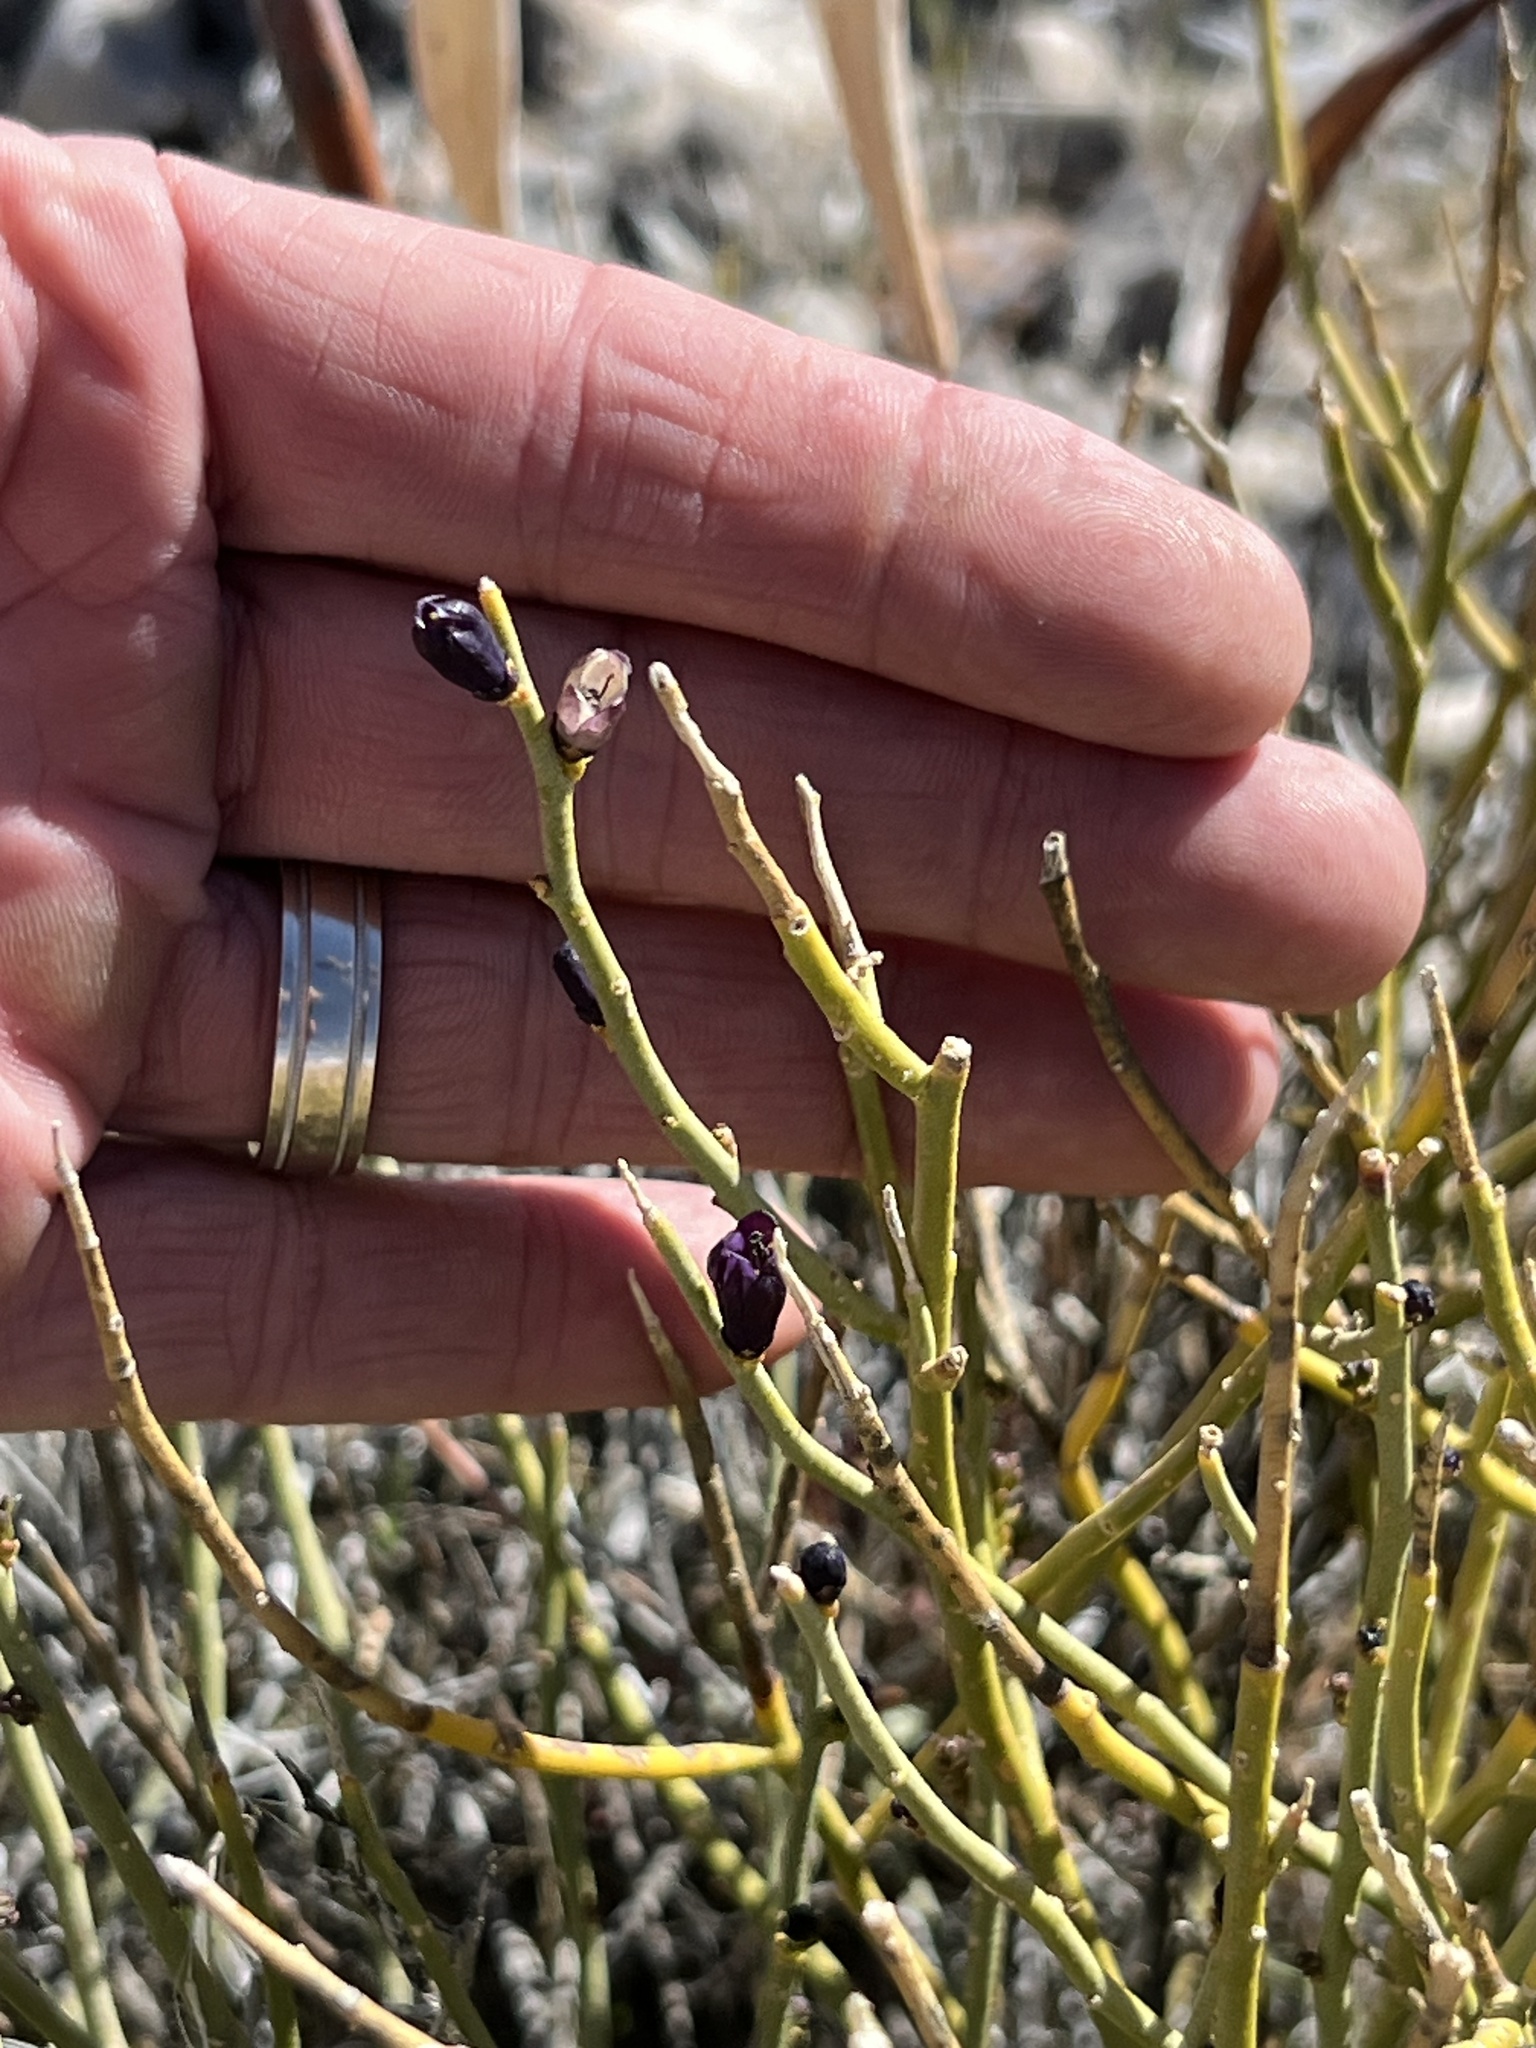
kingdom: Plantae
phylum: Tracheophyta
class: Magnoliopsida
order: Sapindales
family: Rutaceae
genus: Thamnosma
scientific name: Thamnosma montana
